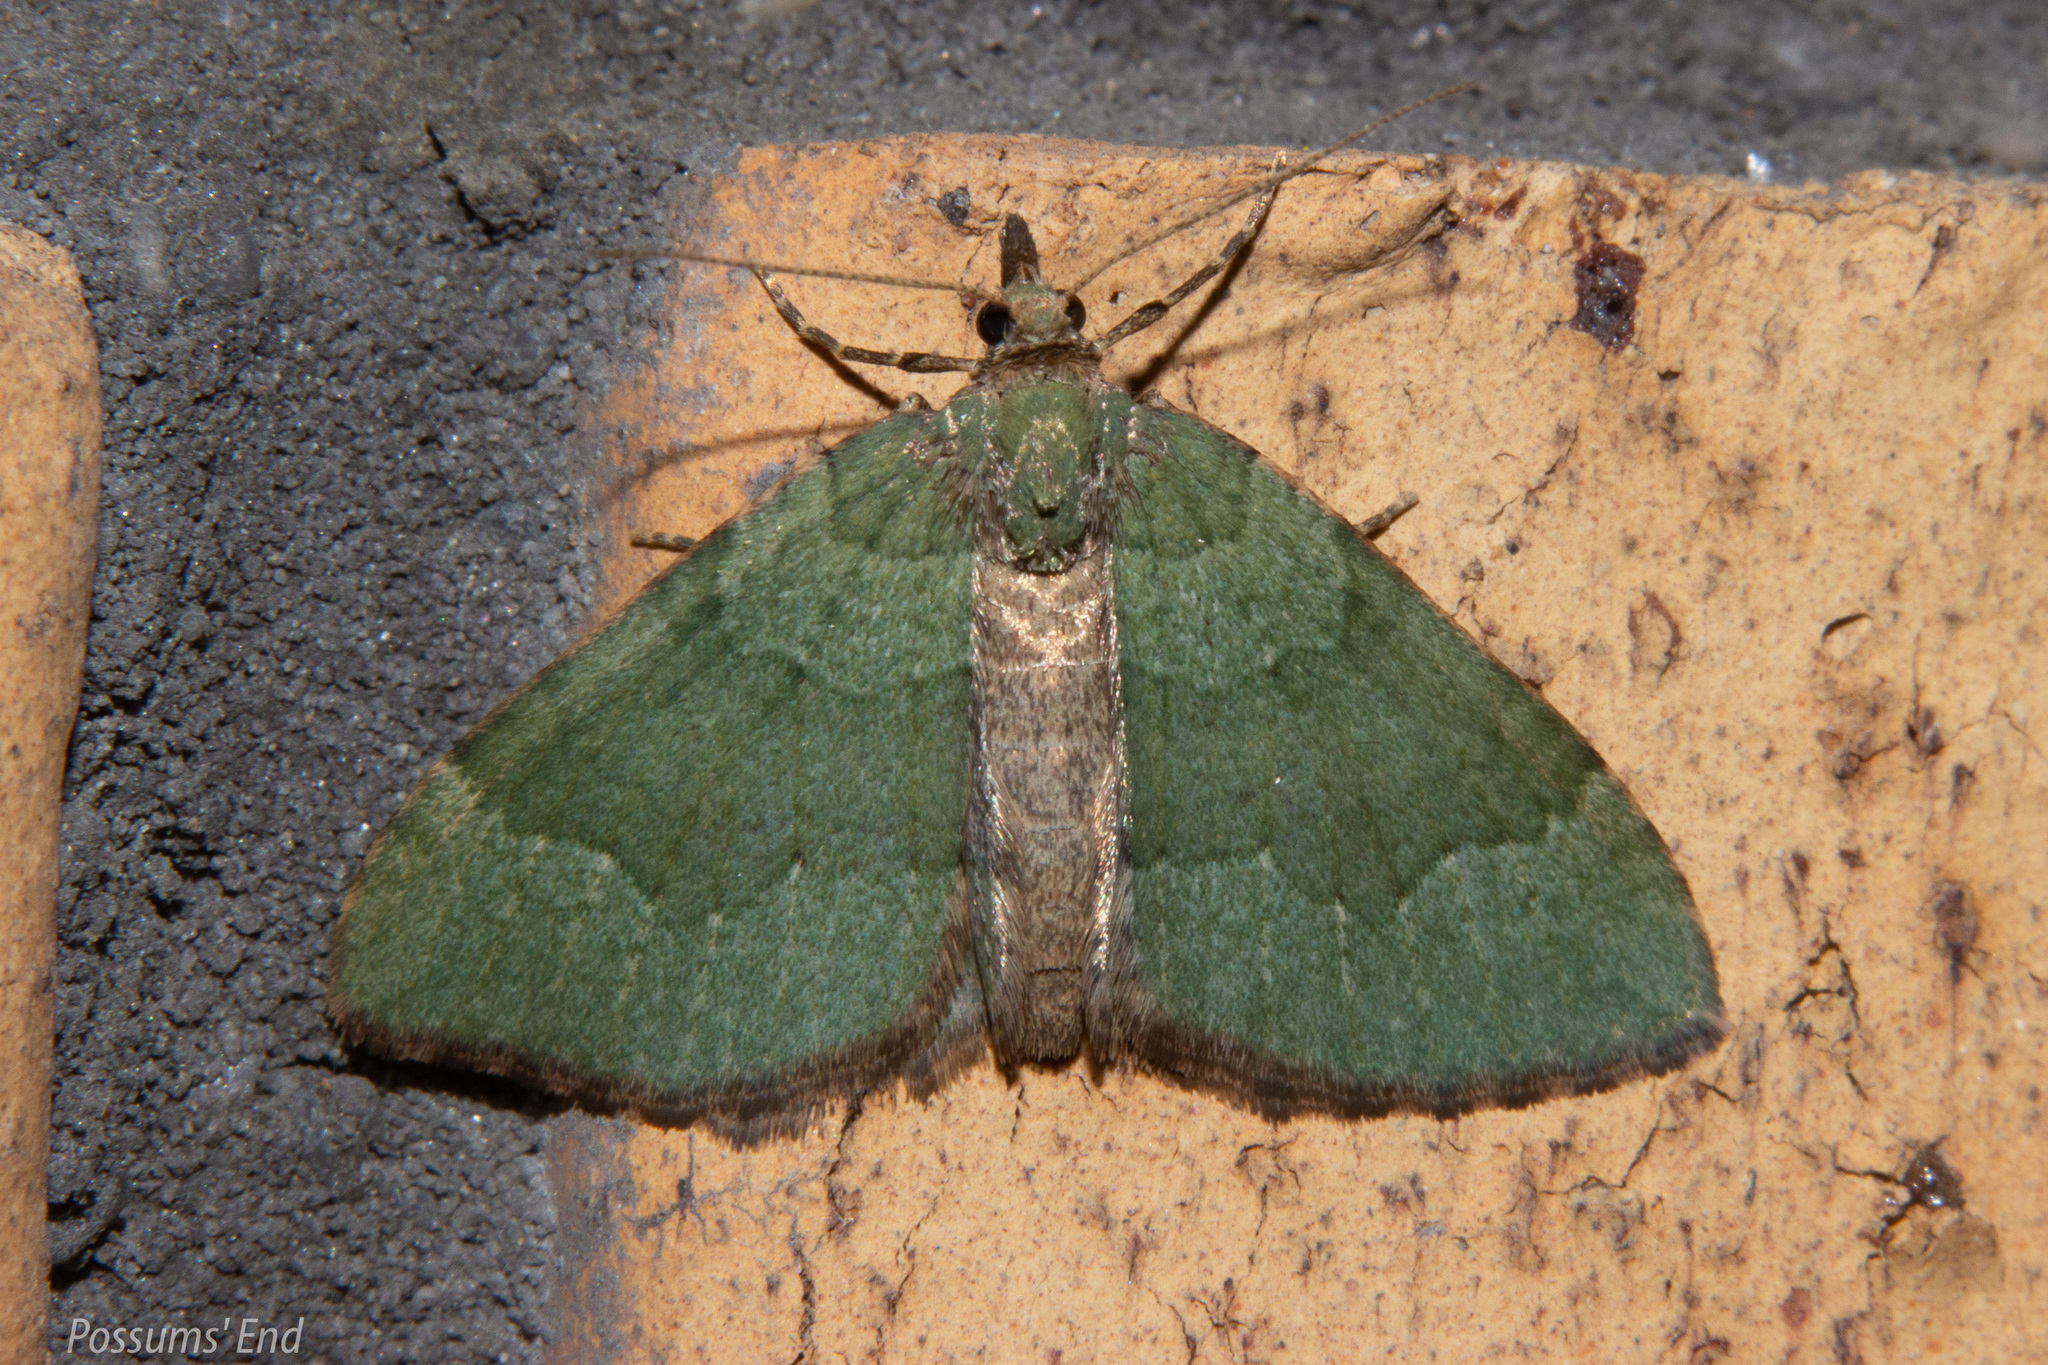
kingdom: Animalia
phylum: Arthropoda
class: Insecta
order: Lepidoptera
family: Geometridae
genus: Epyaxa
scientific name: Epyaxa rosearia
